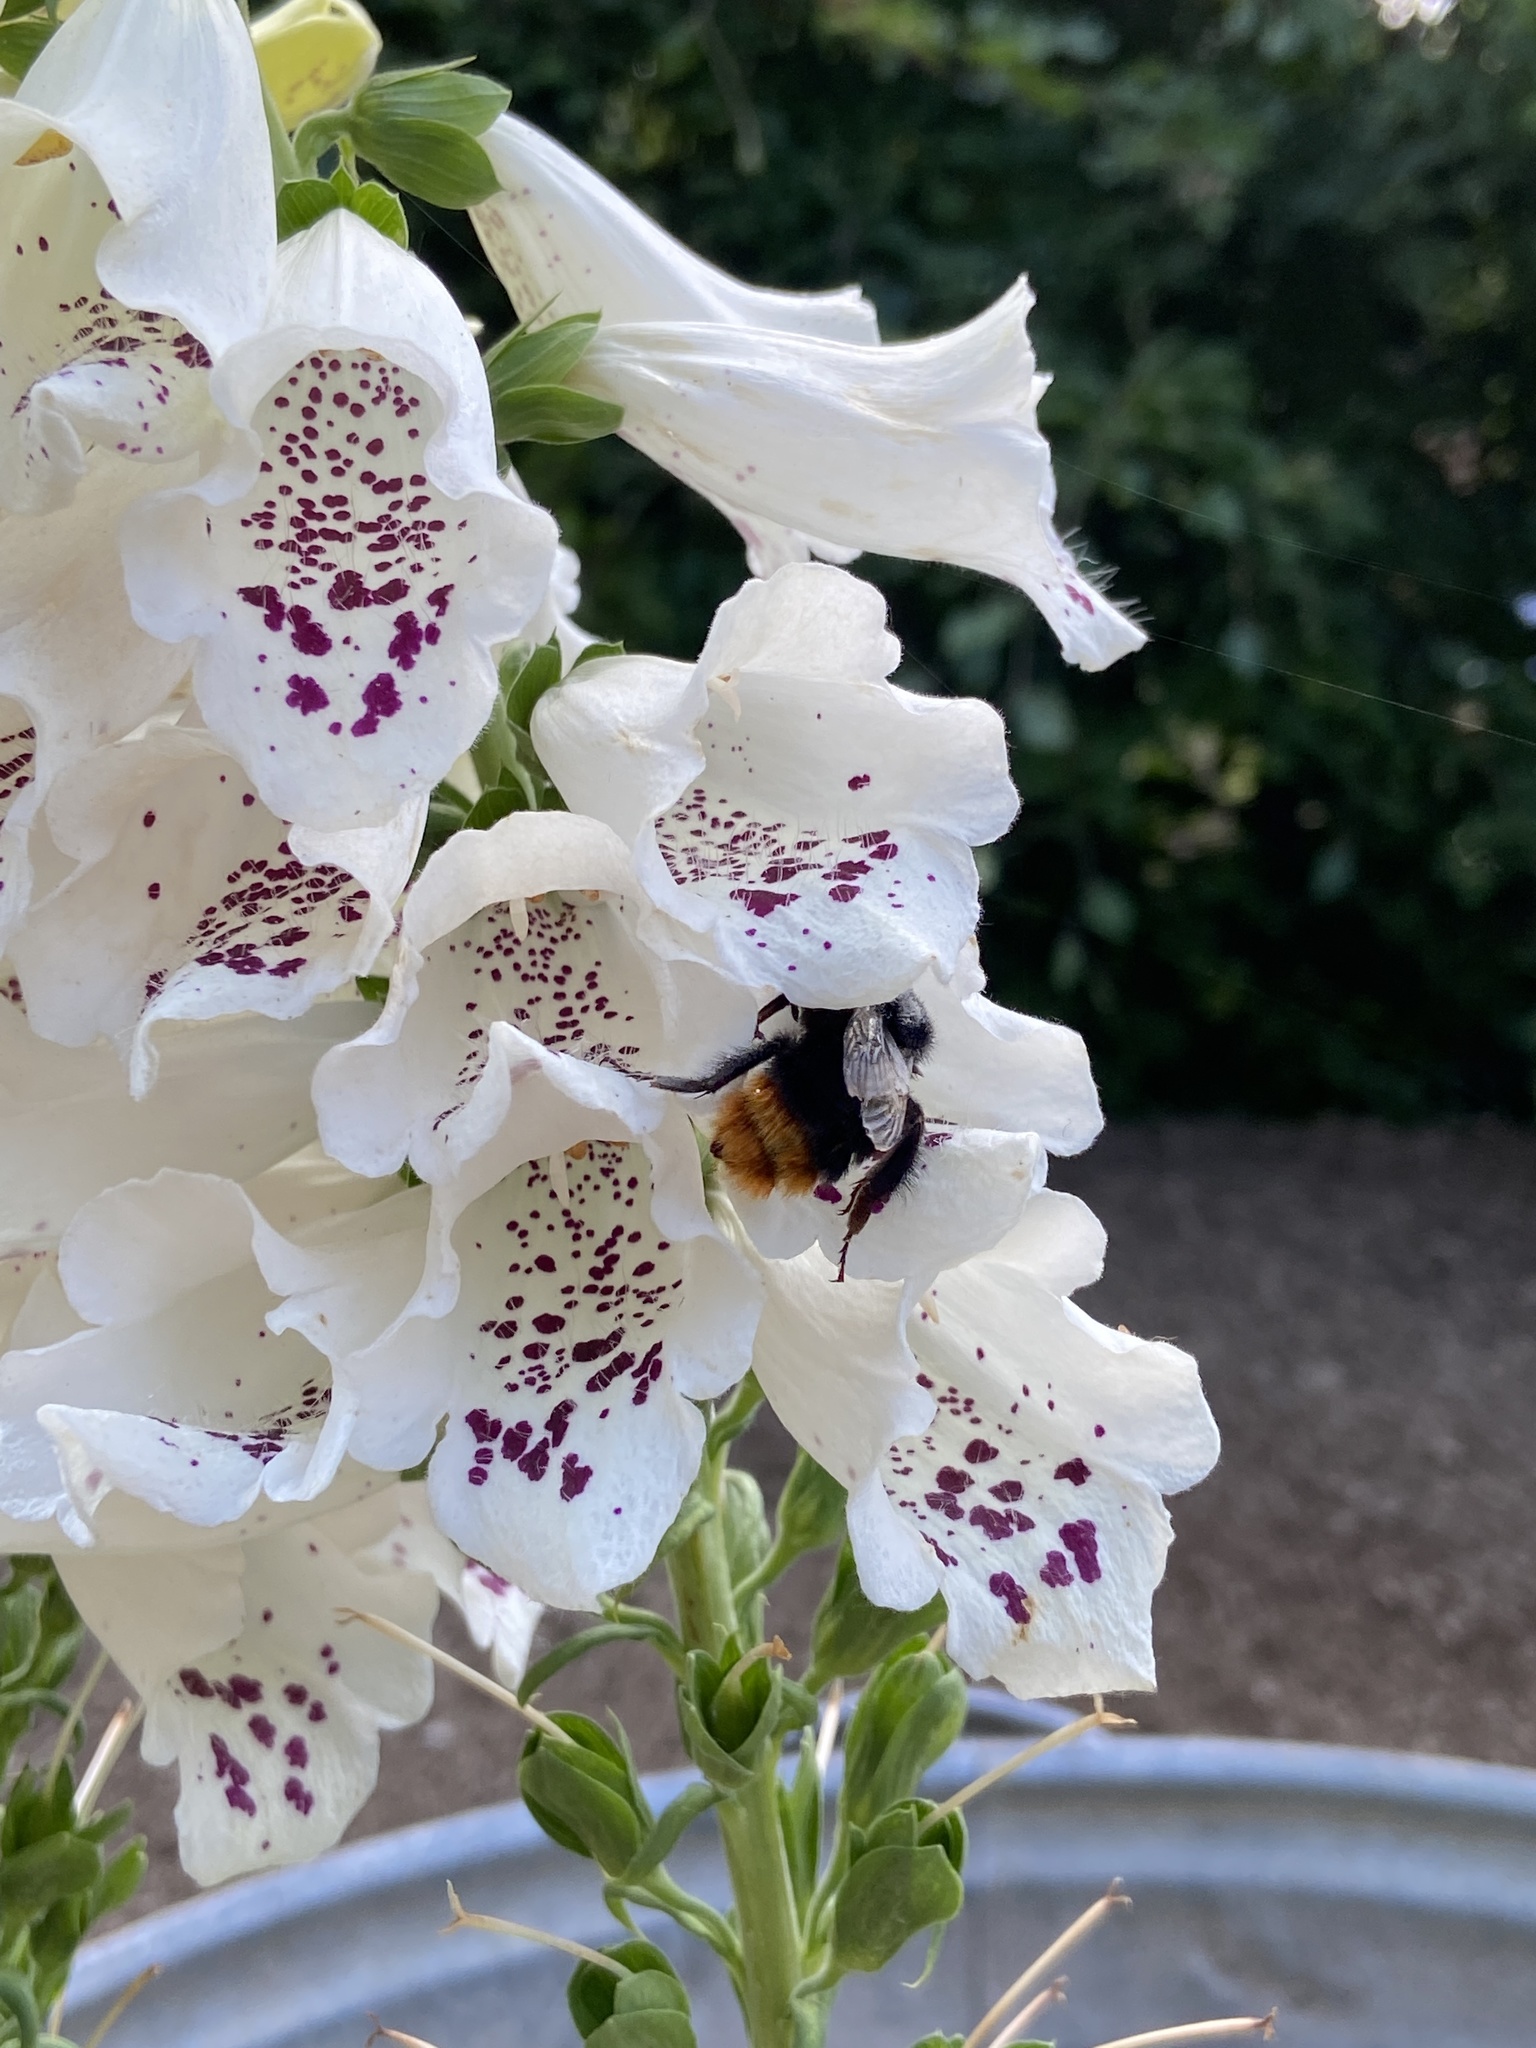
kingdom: Animalia
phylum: Arthropoda
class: Insecta
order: Hymenoptera
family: Apidae
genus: Bombus
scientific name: Bombus lapidarius
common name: Large red-tailed humble-bee
